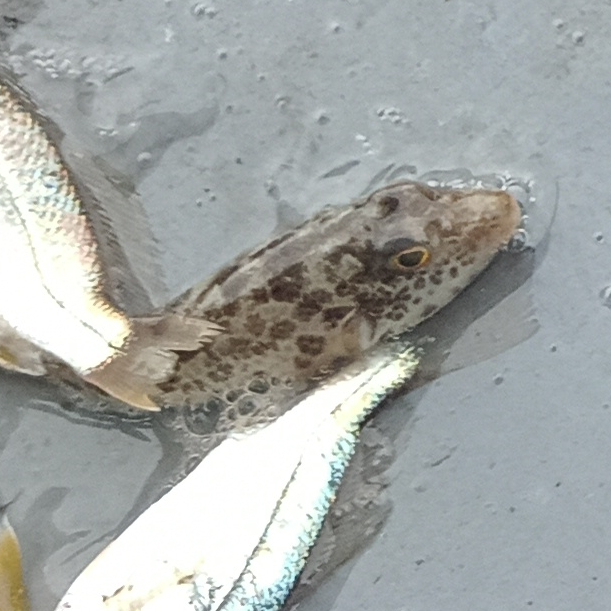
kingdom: Animalia
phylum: Chordata
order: Tetraodontiformes
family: Tetraodontidae
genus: Sphoeroides
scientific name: Sphoeroides greeleyi
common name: Green puffer
